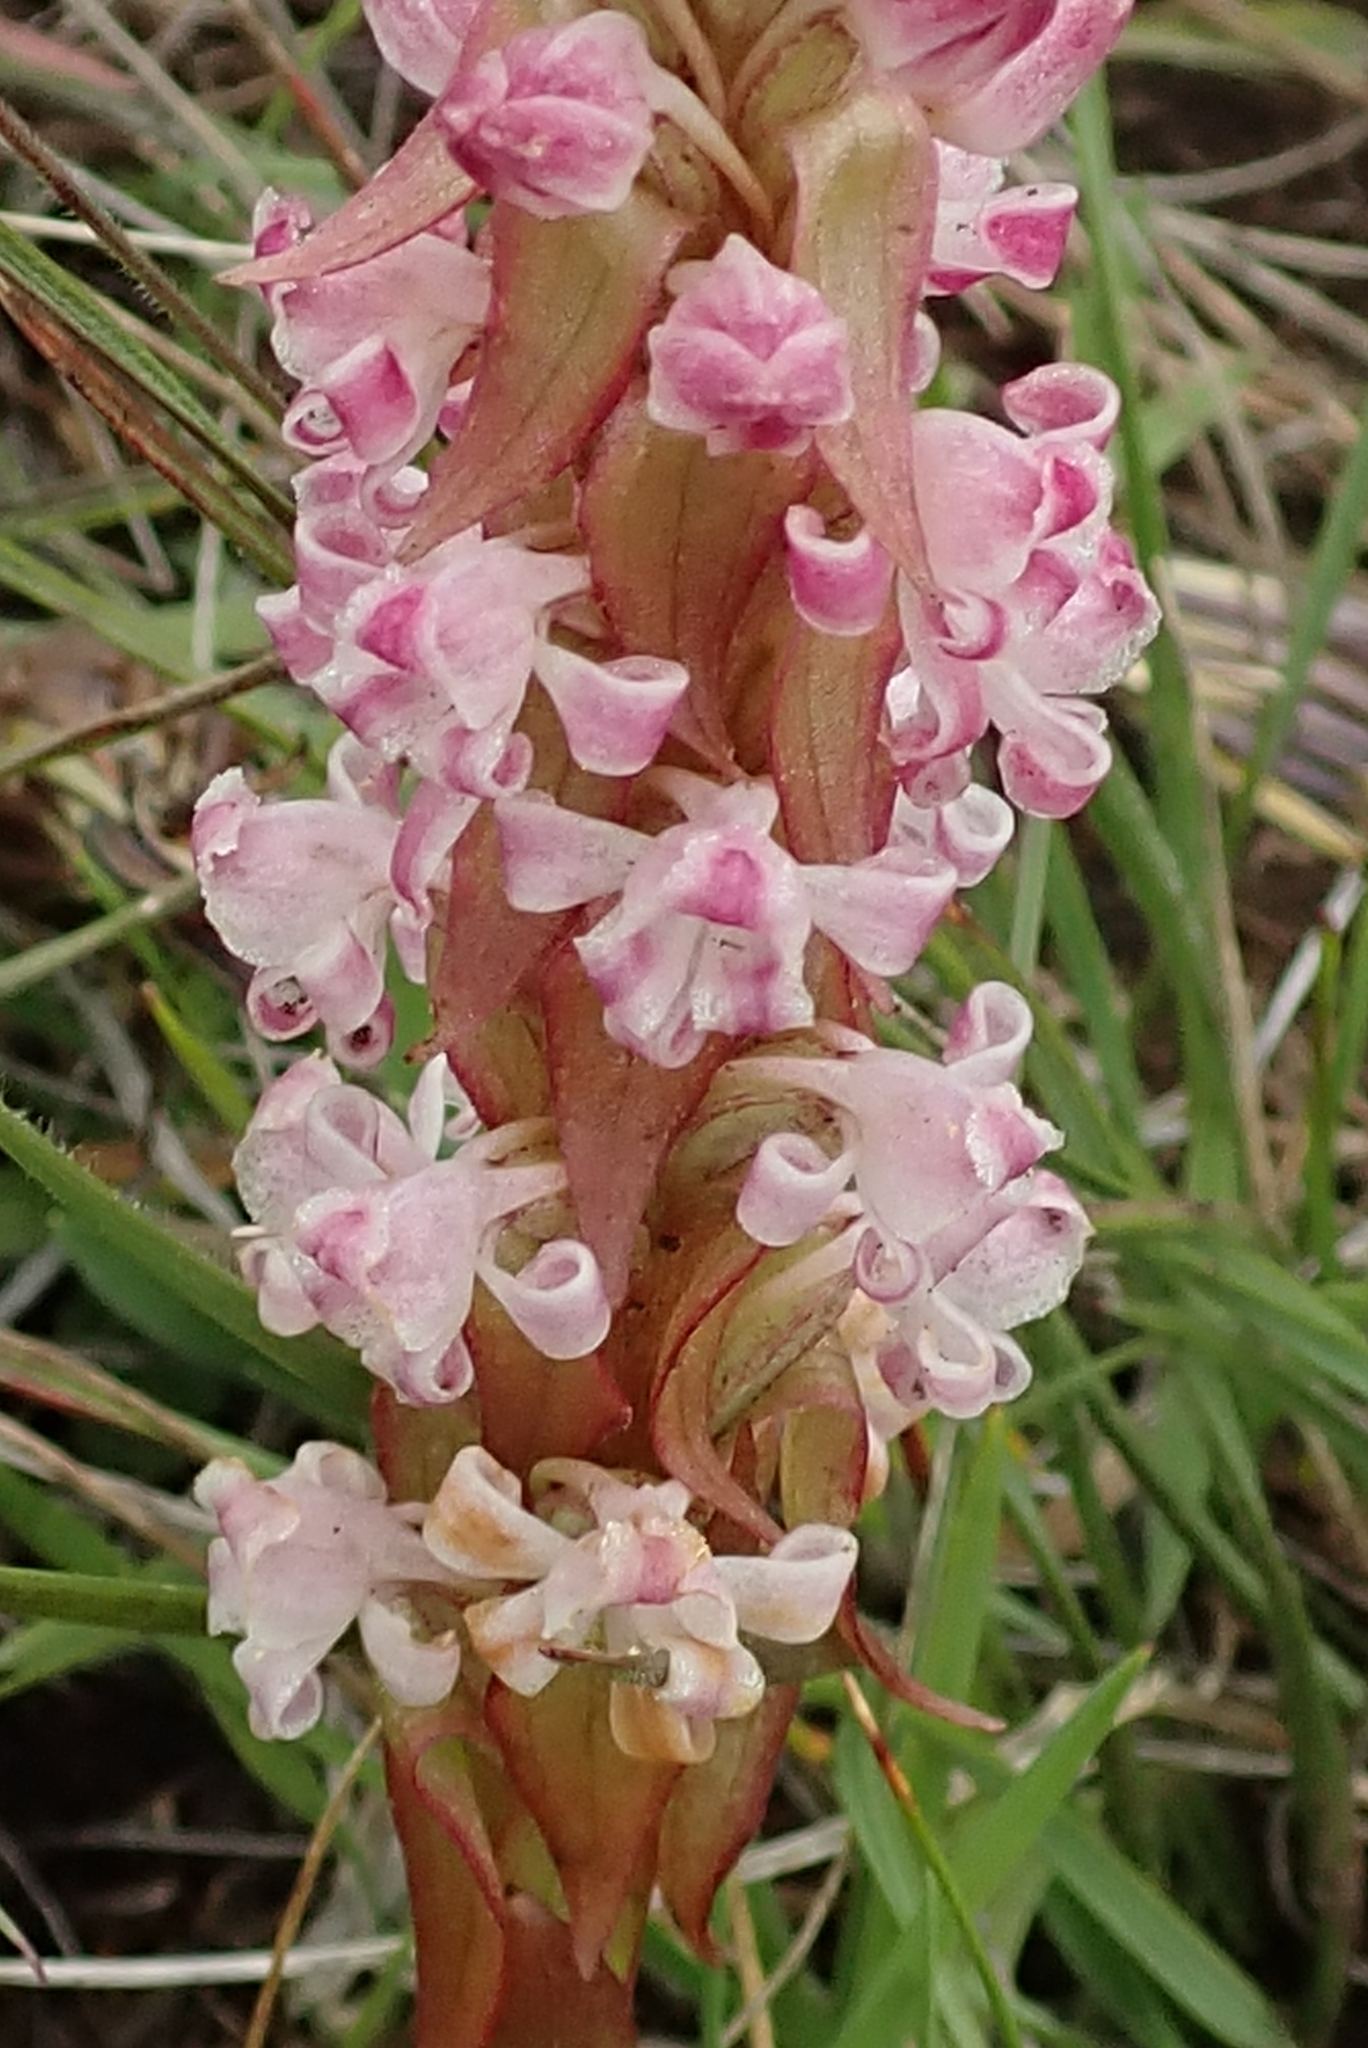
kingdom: Plantae
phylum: Tracheophyta
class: Liliopsida
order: Asparagales
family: Orchidaceae
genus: Satyrium
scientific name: Satyrium longicauda
